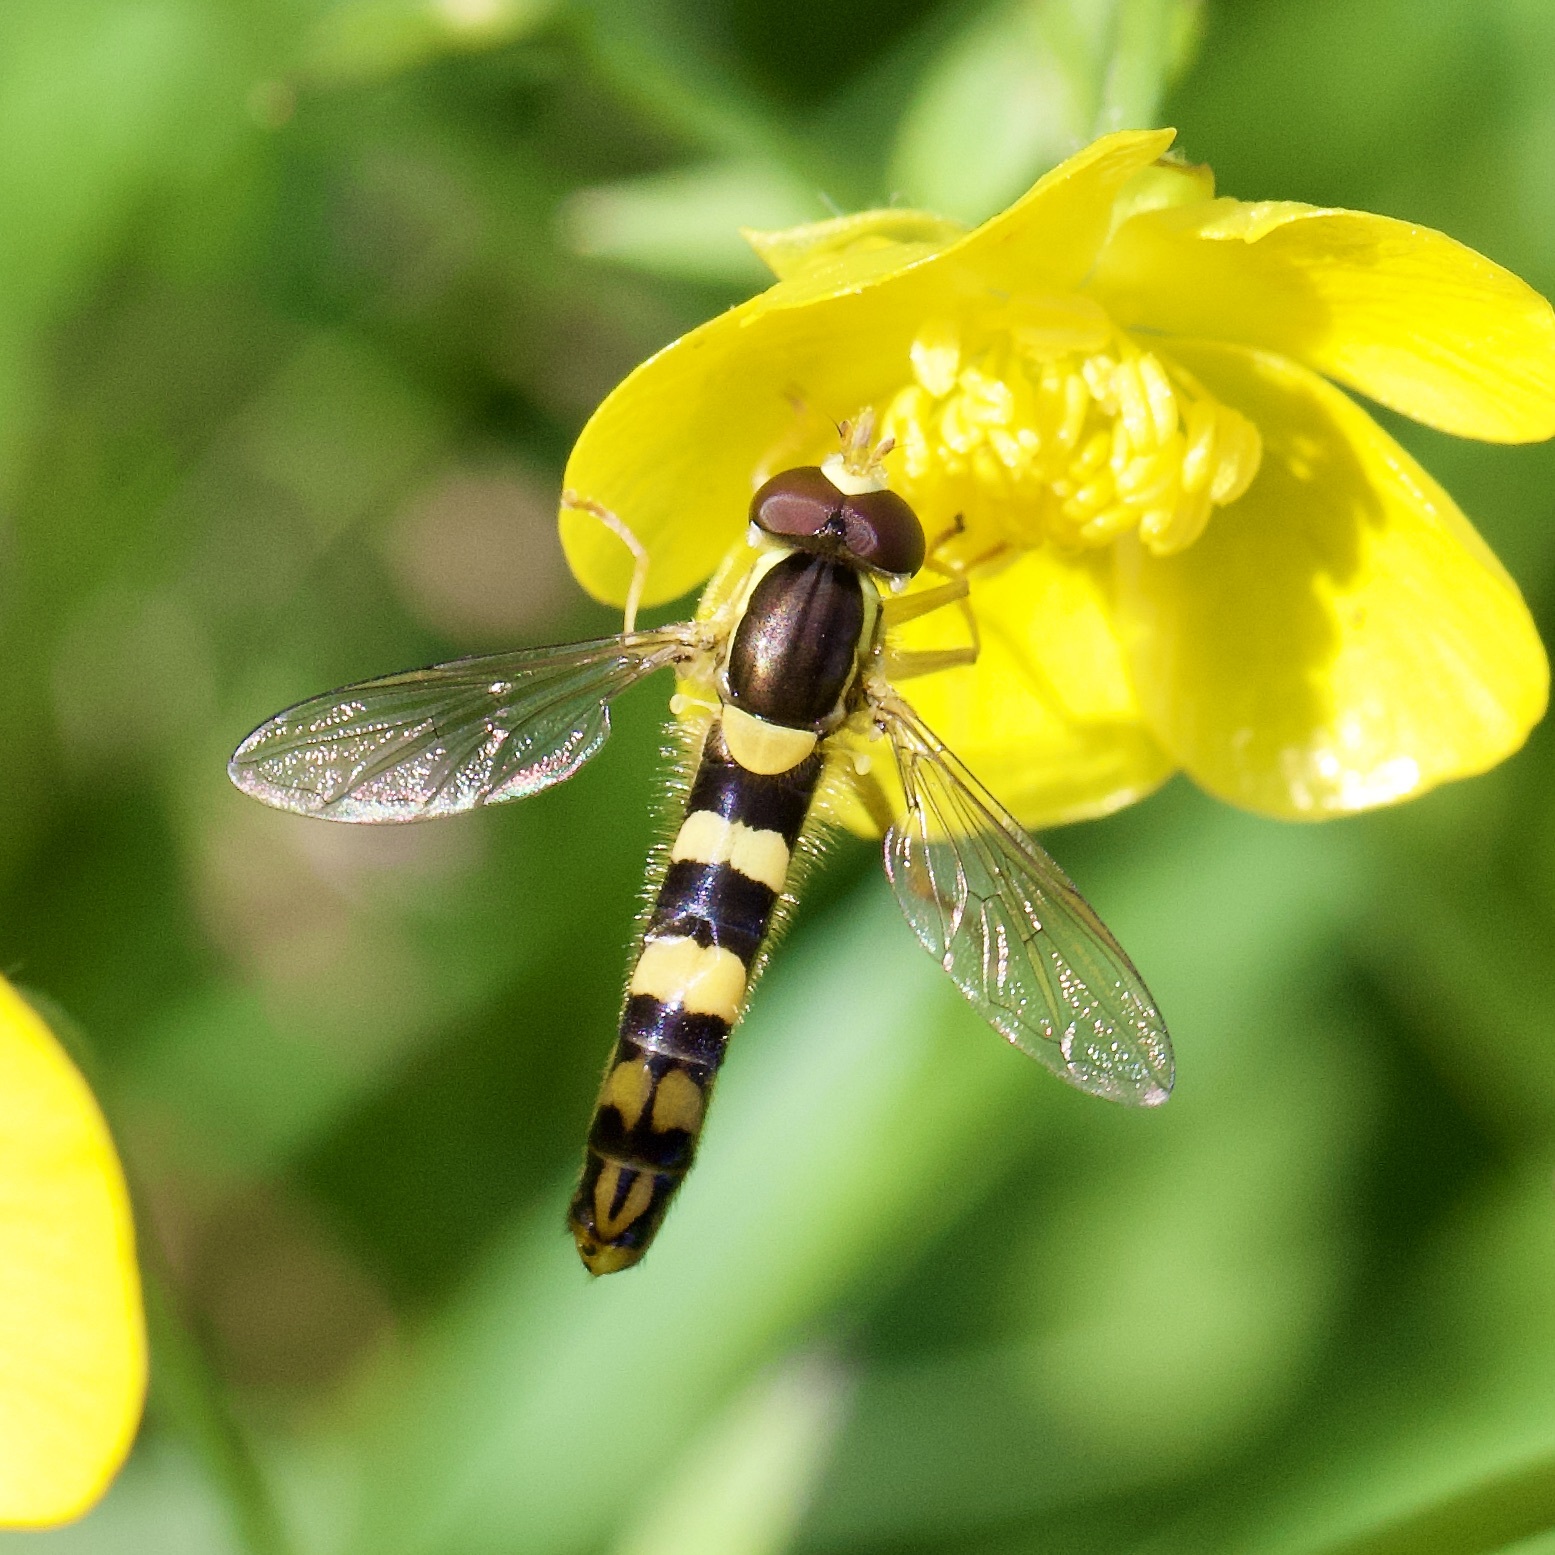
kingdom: Animalia
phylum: Arthropoda
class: Insecta
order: Diptera
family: Syrphidae
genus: Sphaerophoria
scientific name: Sphaerophoria scripta
